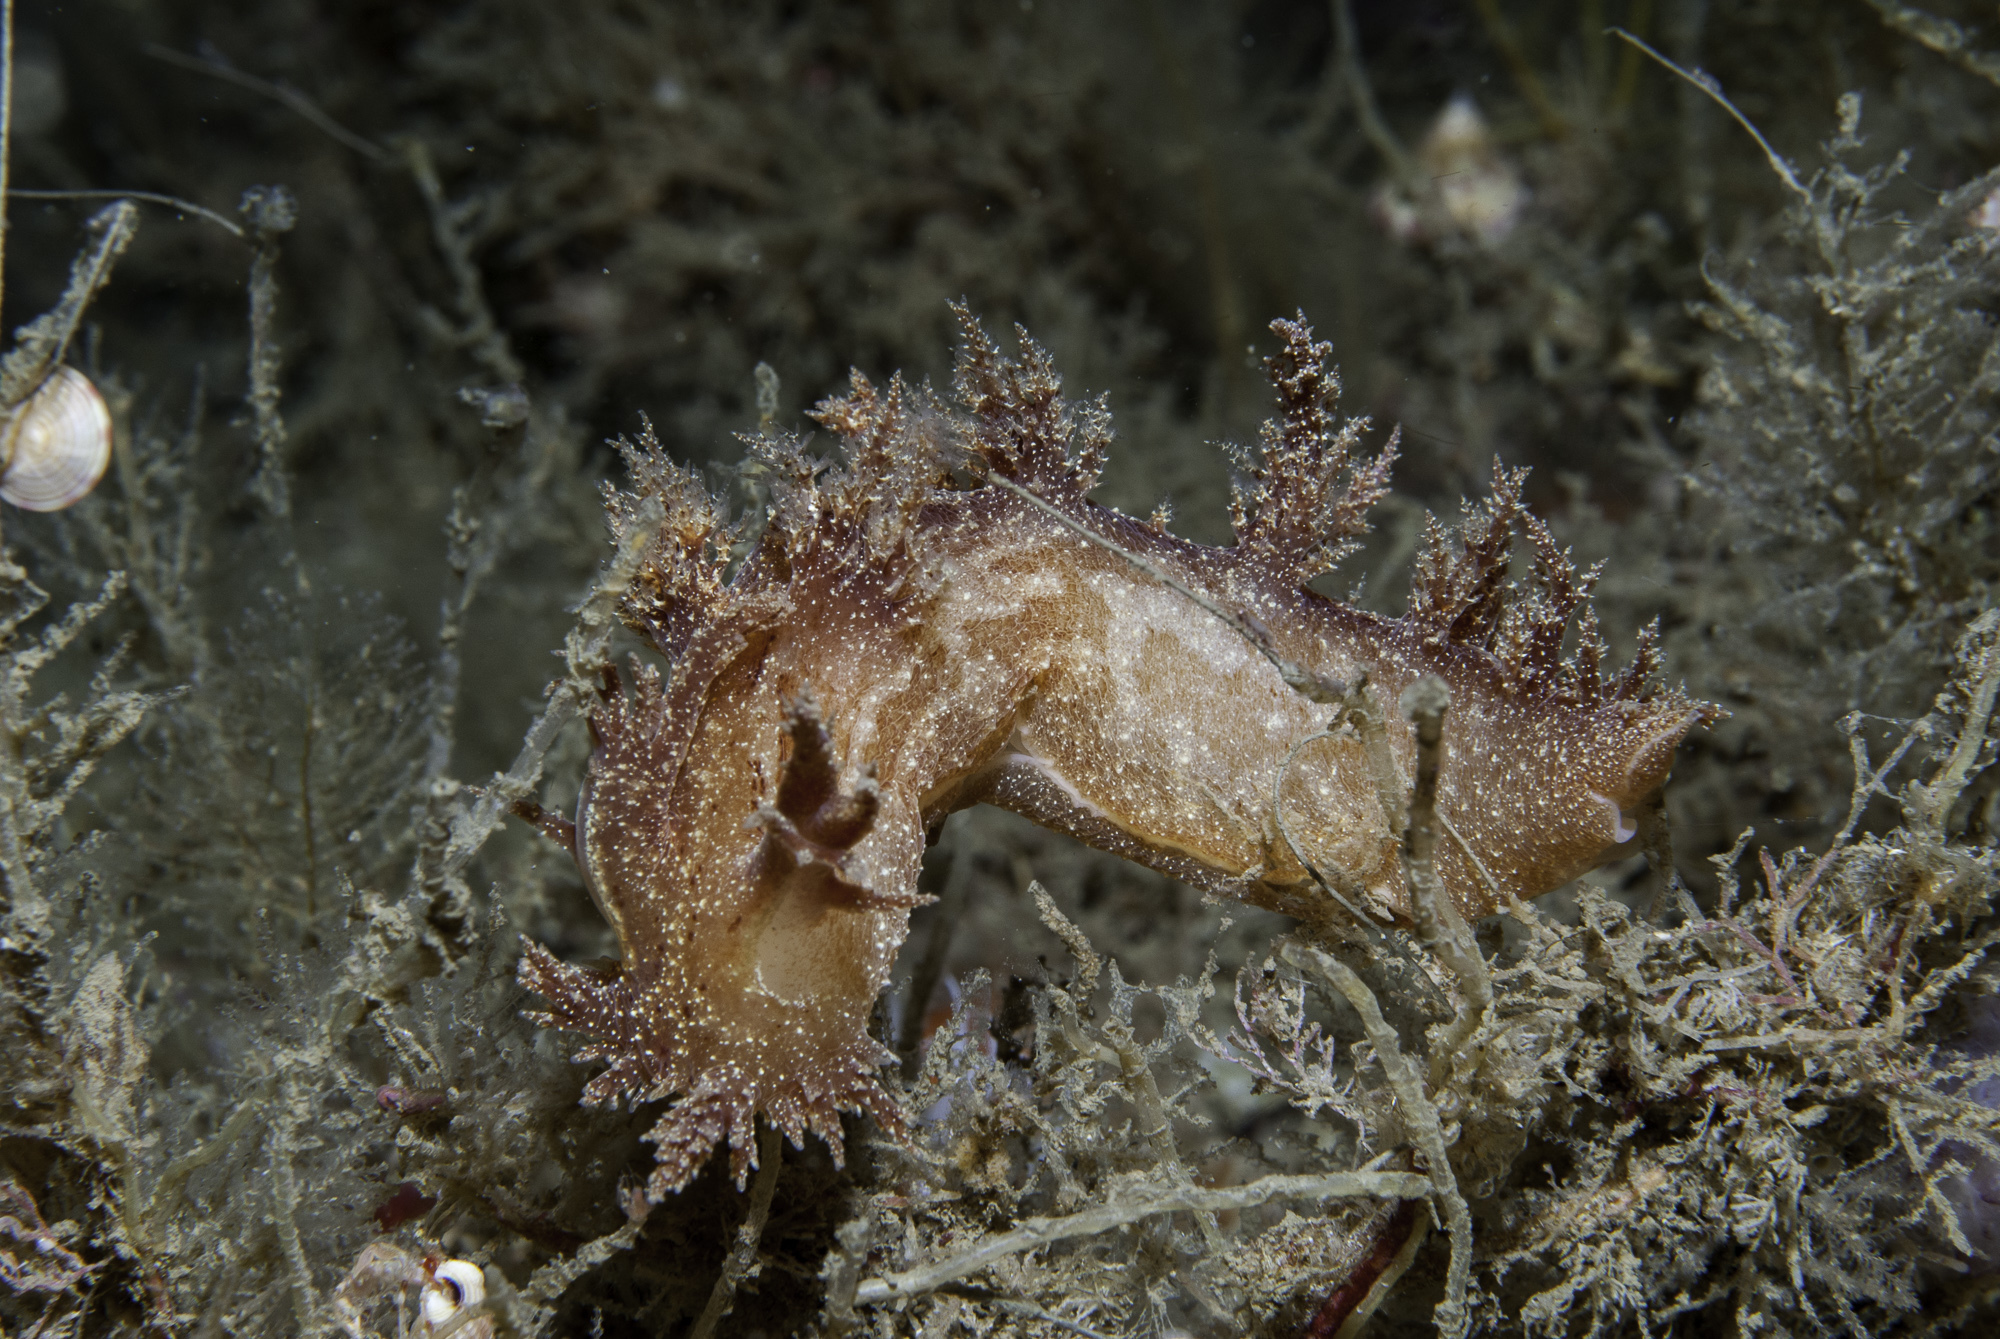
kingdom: Animalia
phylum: Mollusca
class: Gastropoda
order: Nudibranchia
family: Dendronotidae
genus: Dendronotus
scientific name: Dendronotus europaeus
